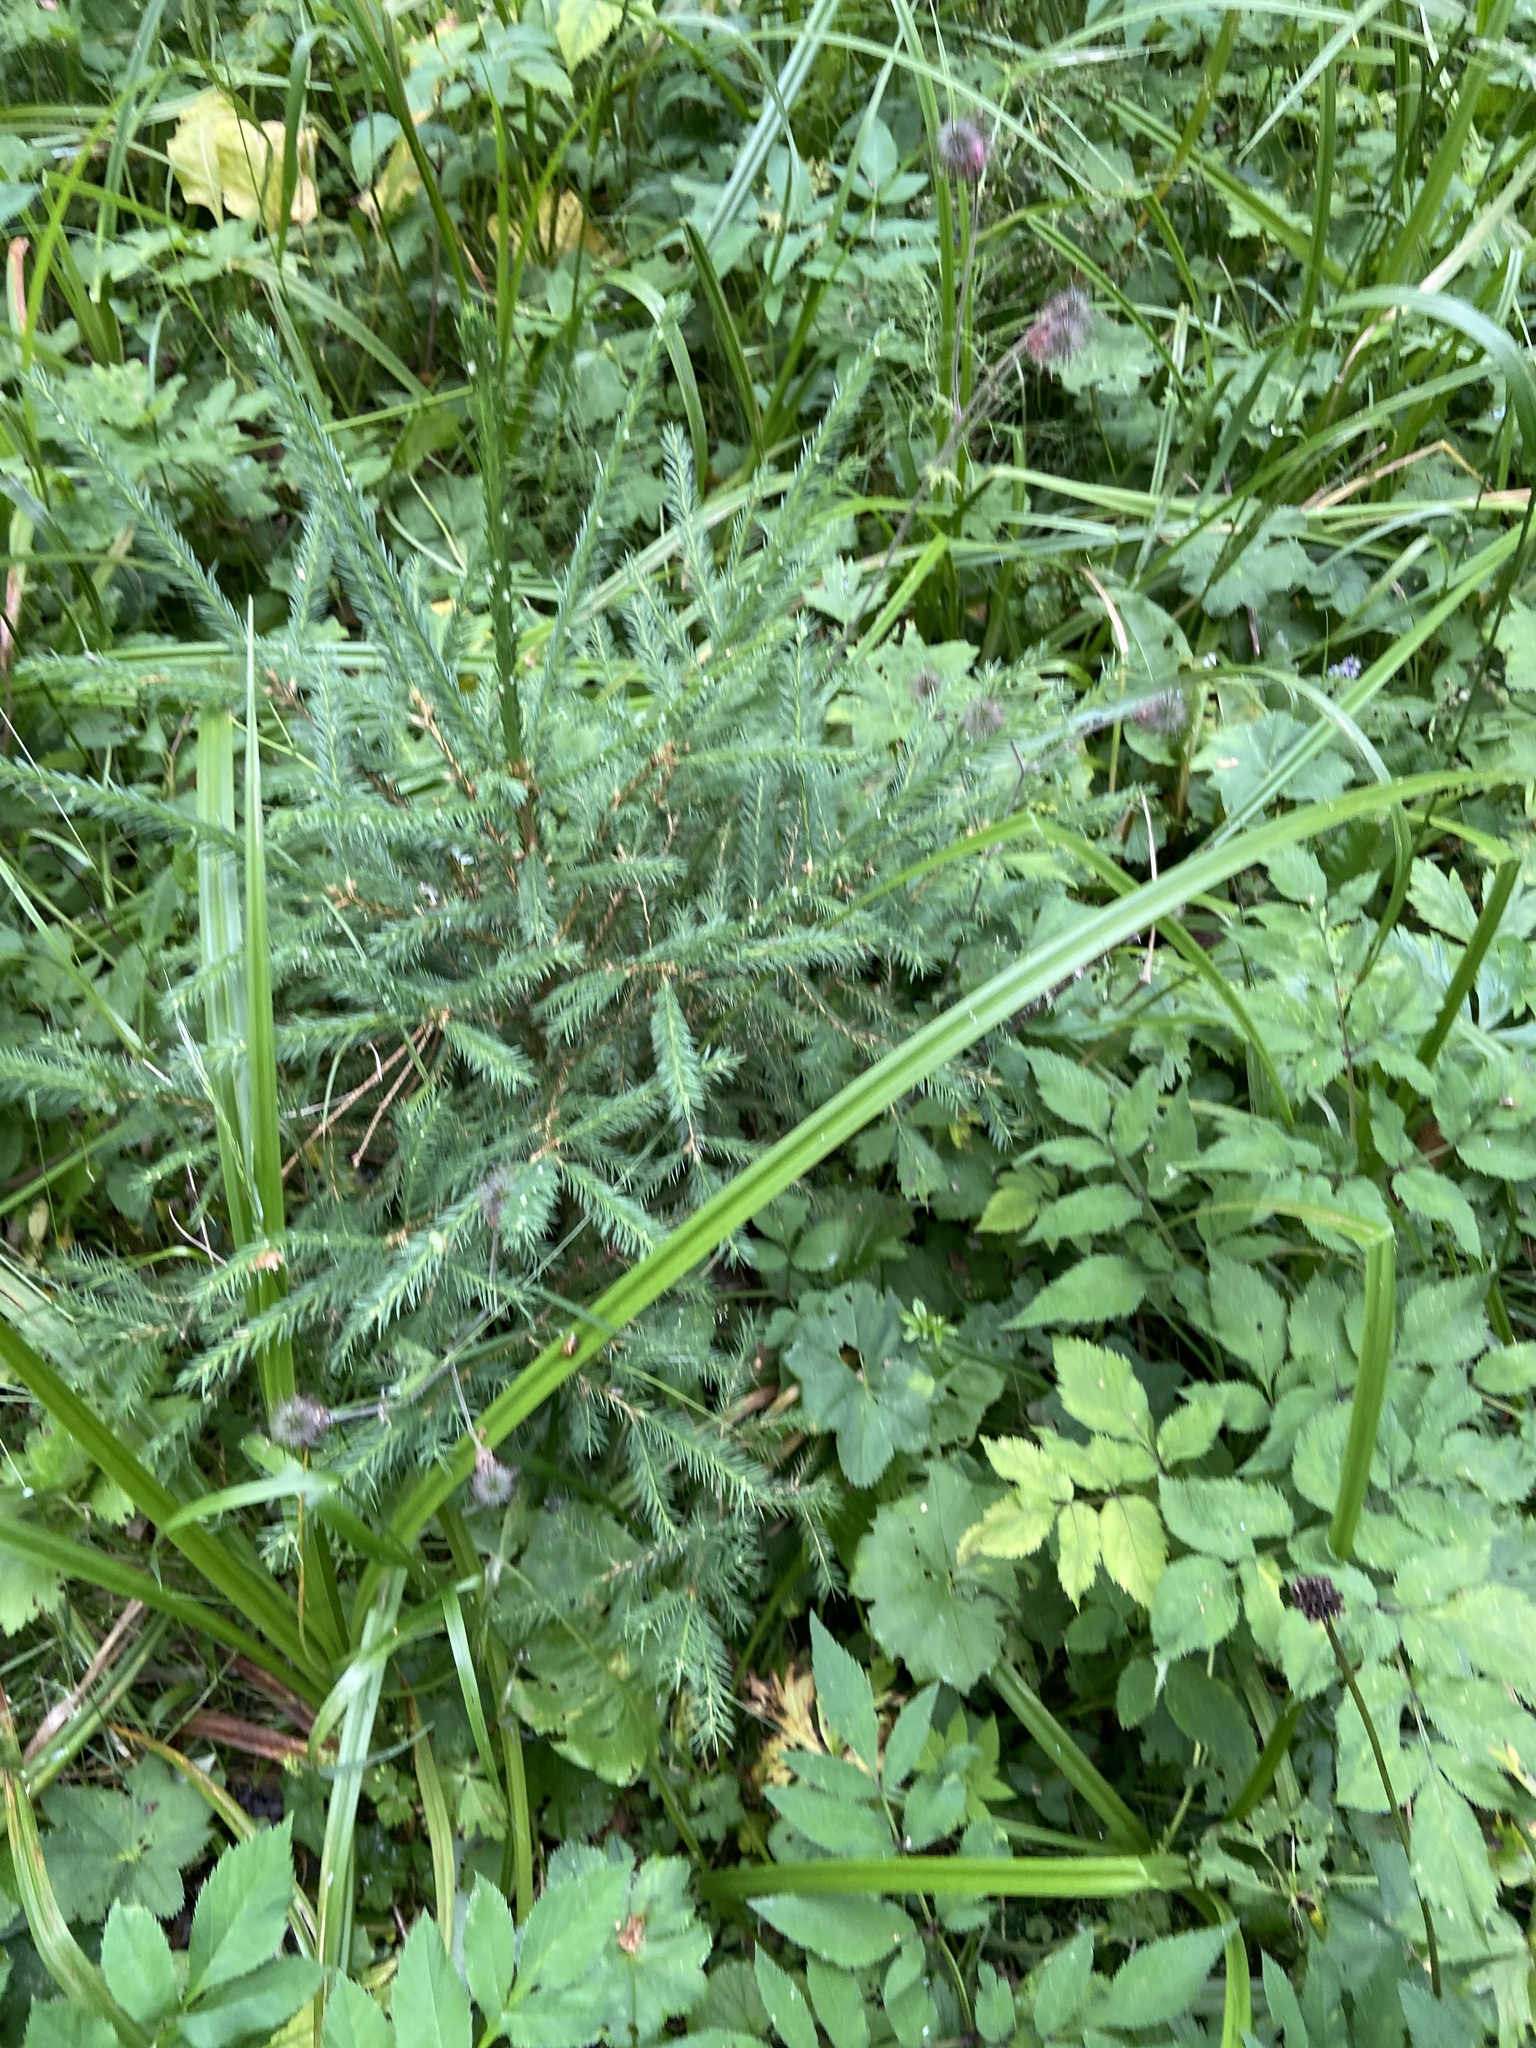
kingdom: Plantae
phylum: Tracheophyta
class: Pinopsida
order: Pinales
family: Pinaceae
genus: Picea
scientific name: Picea abies
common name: Norway spruce
